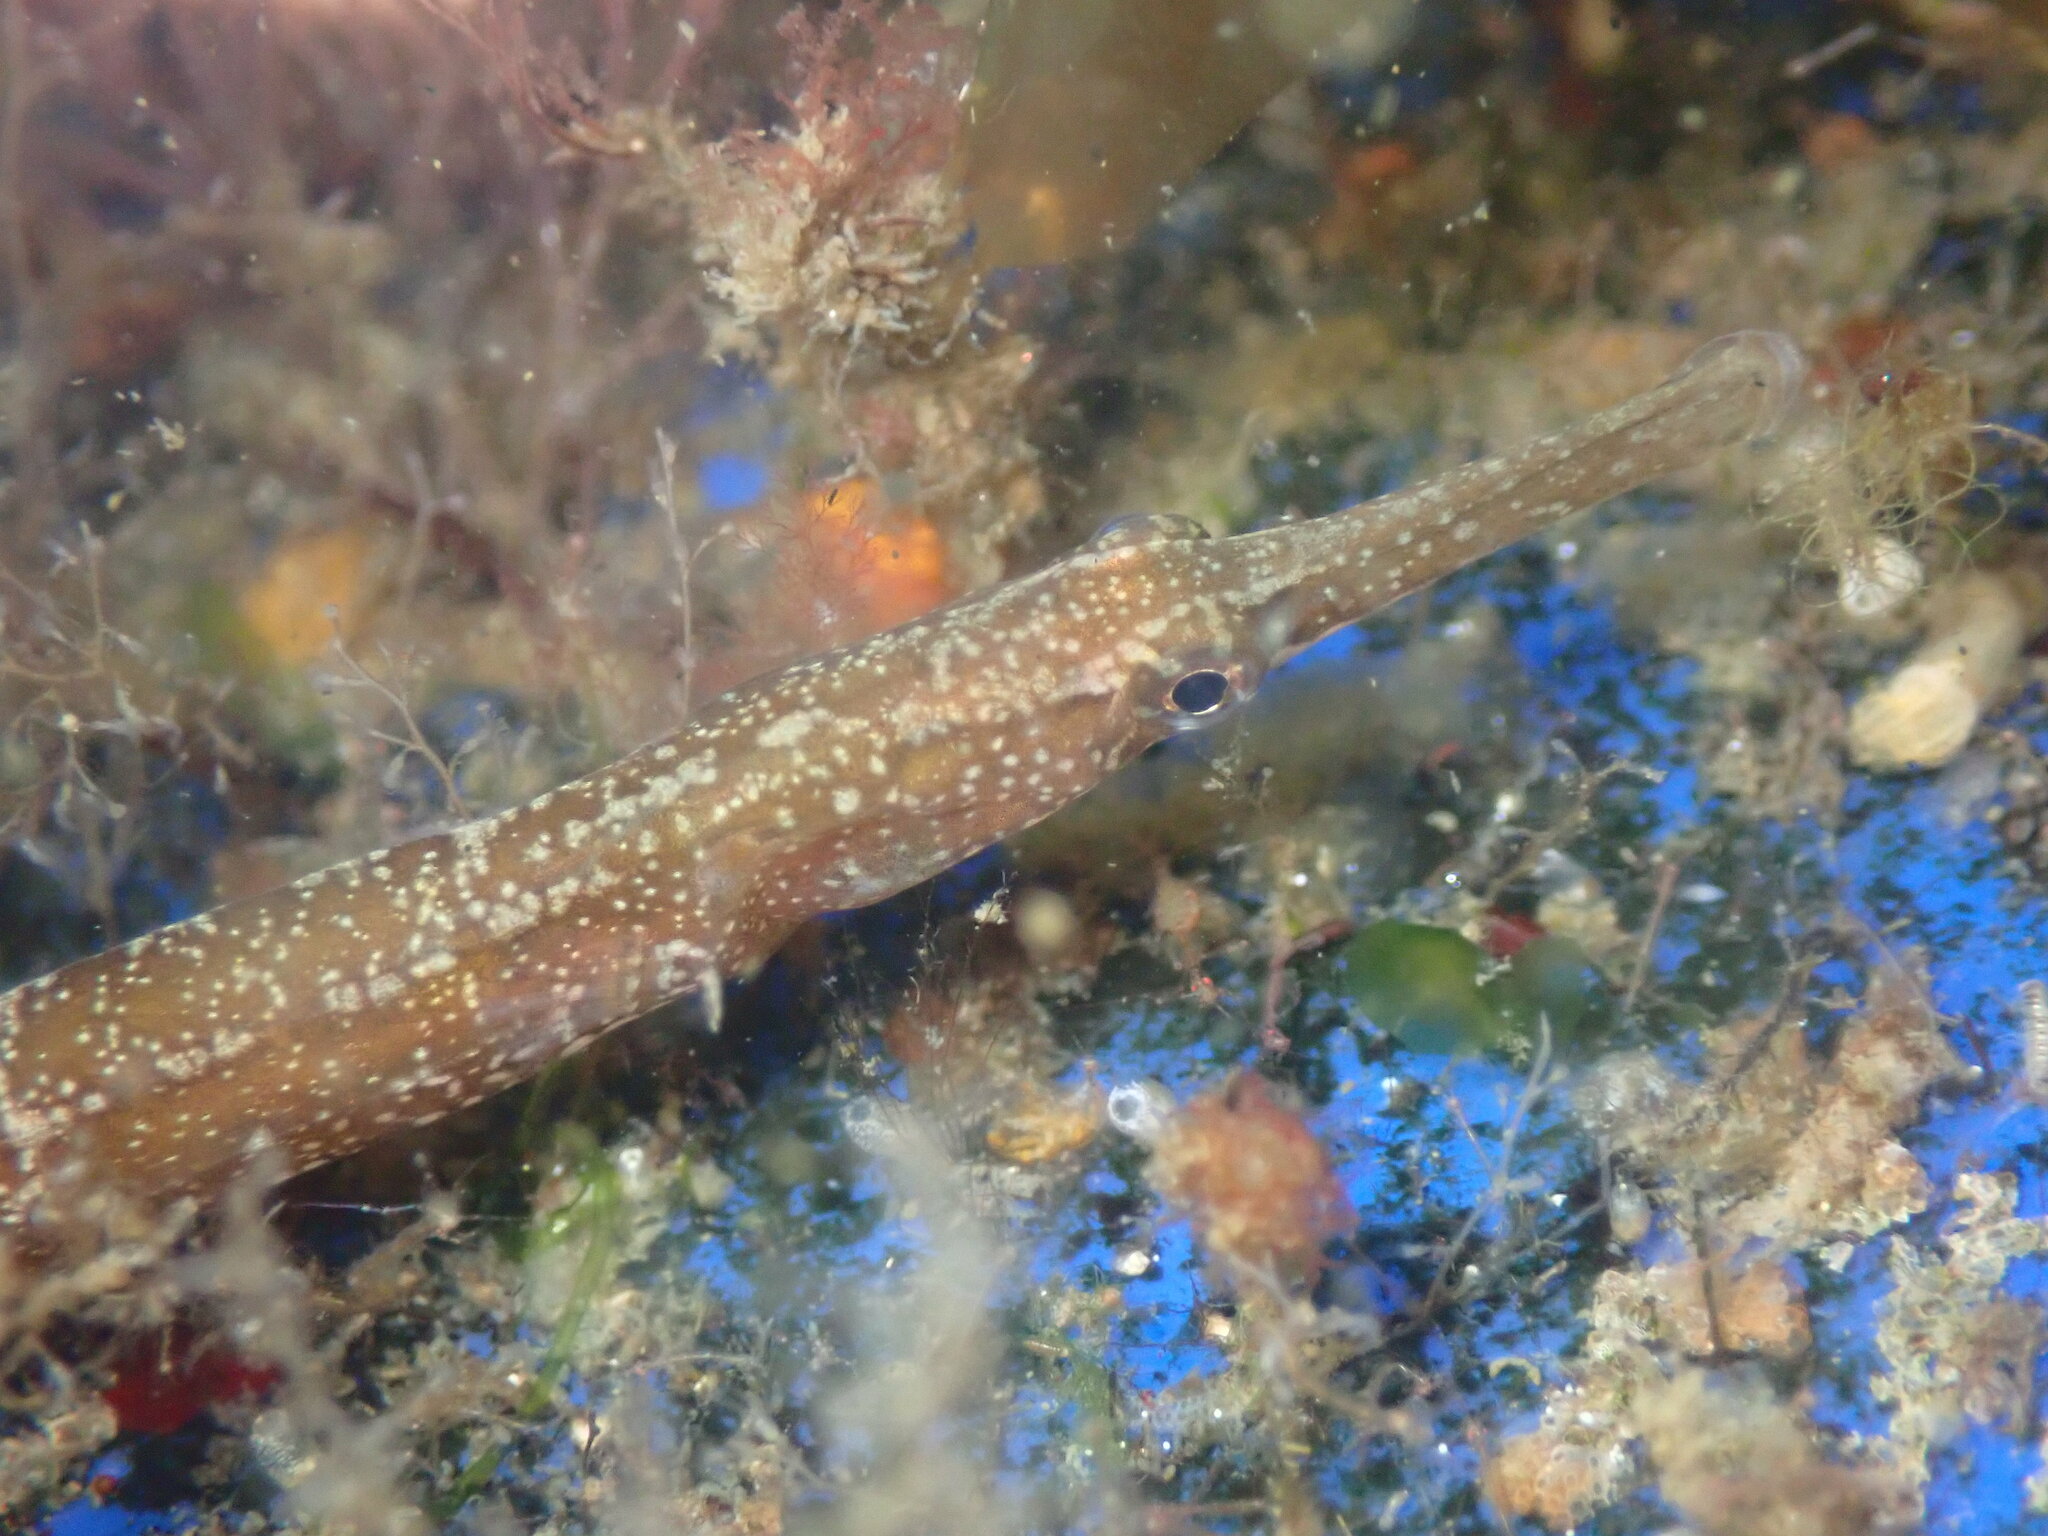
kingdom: Animalia
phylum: Chordata
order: Syngnathiformes
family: Syngnathidae
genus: Syngnathus
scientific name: Syngnathus californiensis
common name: Great pipefish
